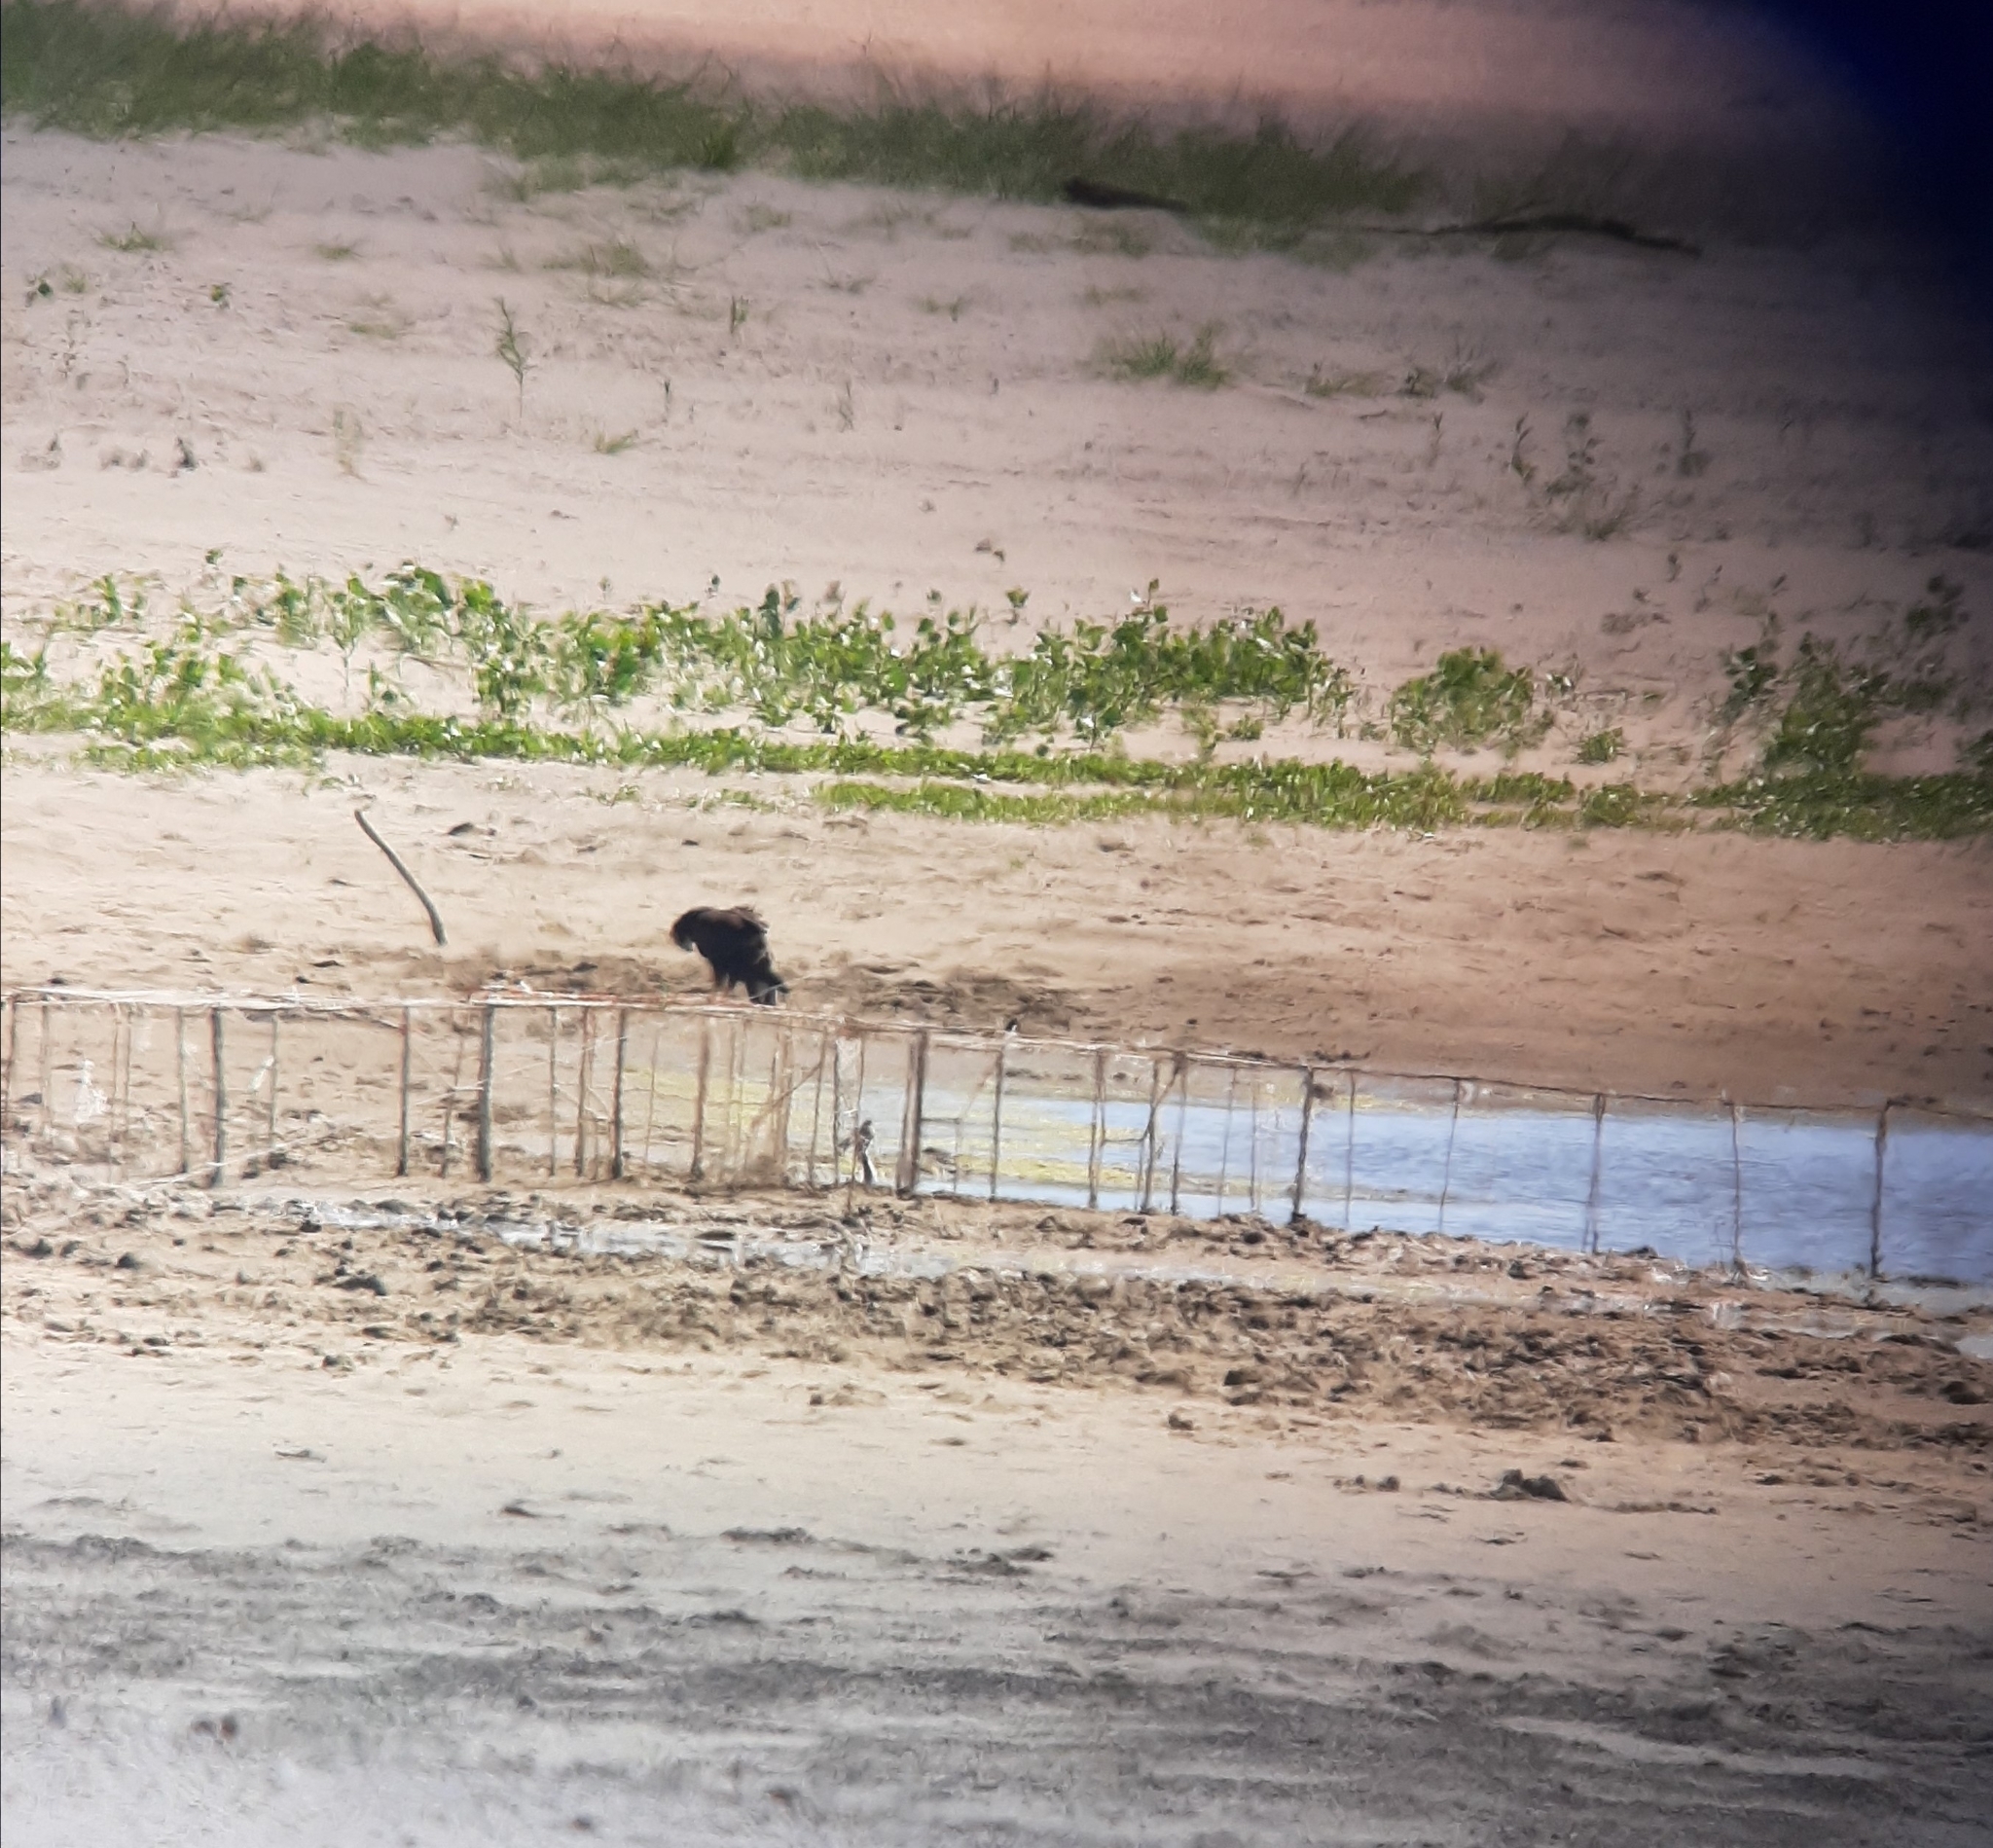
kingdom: Animalia
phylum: Chordata
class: Aves
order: Accipitriformes
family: Accipitridae
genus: Circus
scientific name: Circus aeruginosus
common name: Western marsh harrier
